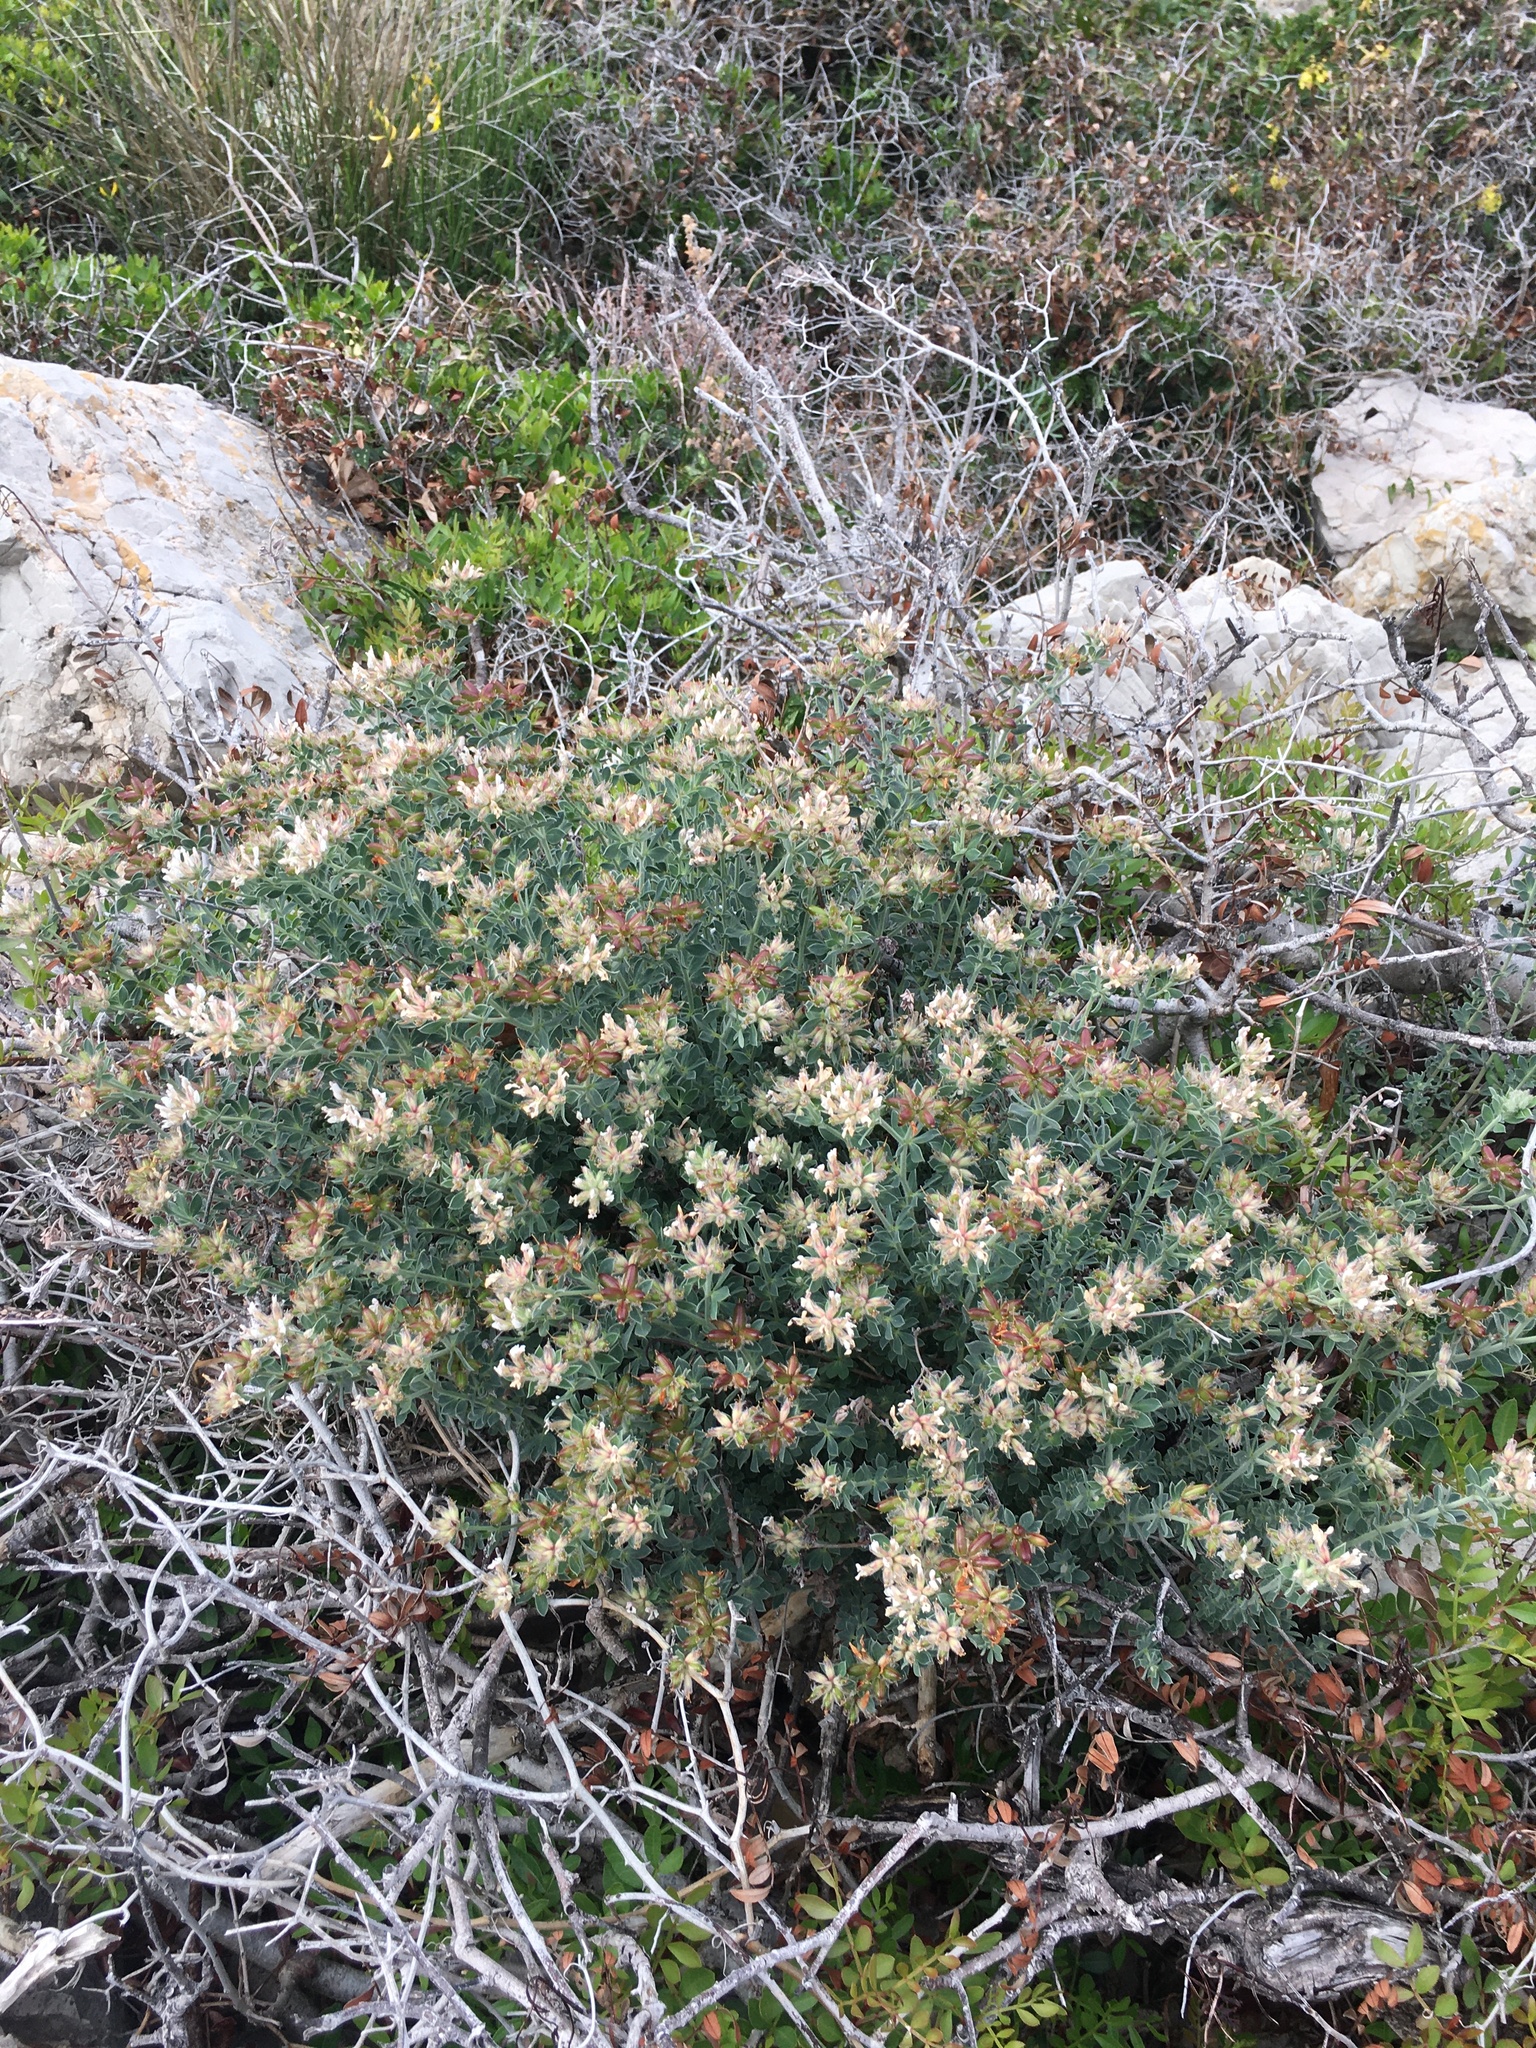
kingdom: Plantae
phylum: Tracheophyta
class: Magnoliopsida
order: Fabales
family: Fabaceae
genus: Lotus
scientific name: Lotus dorycnium
